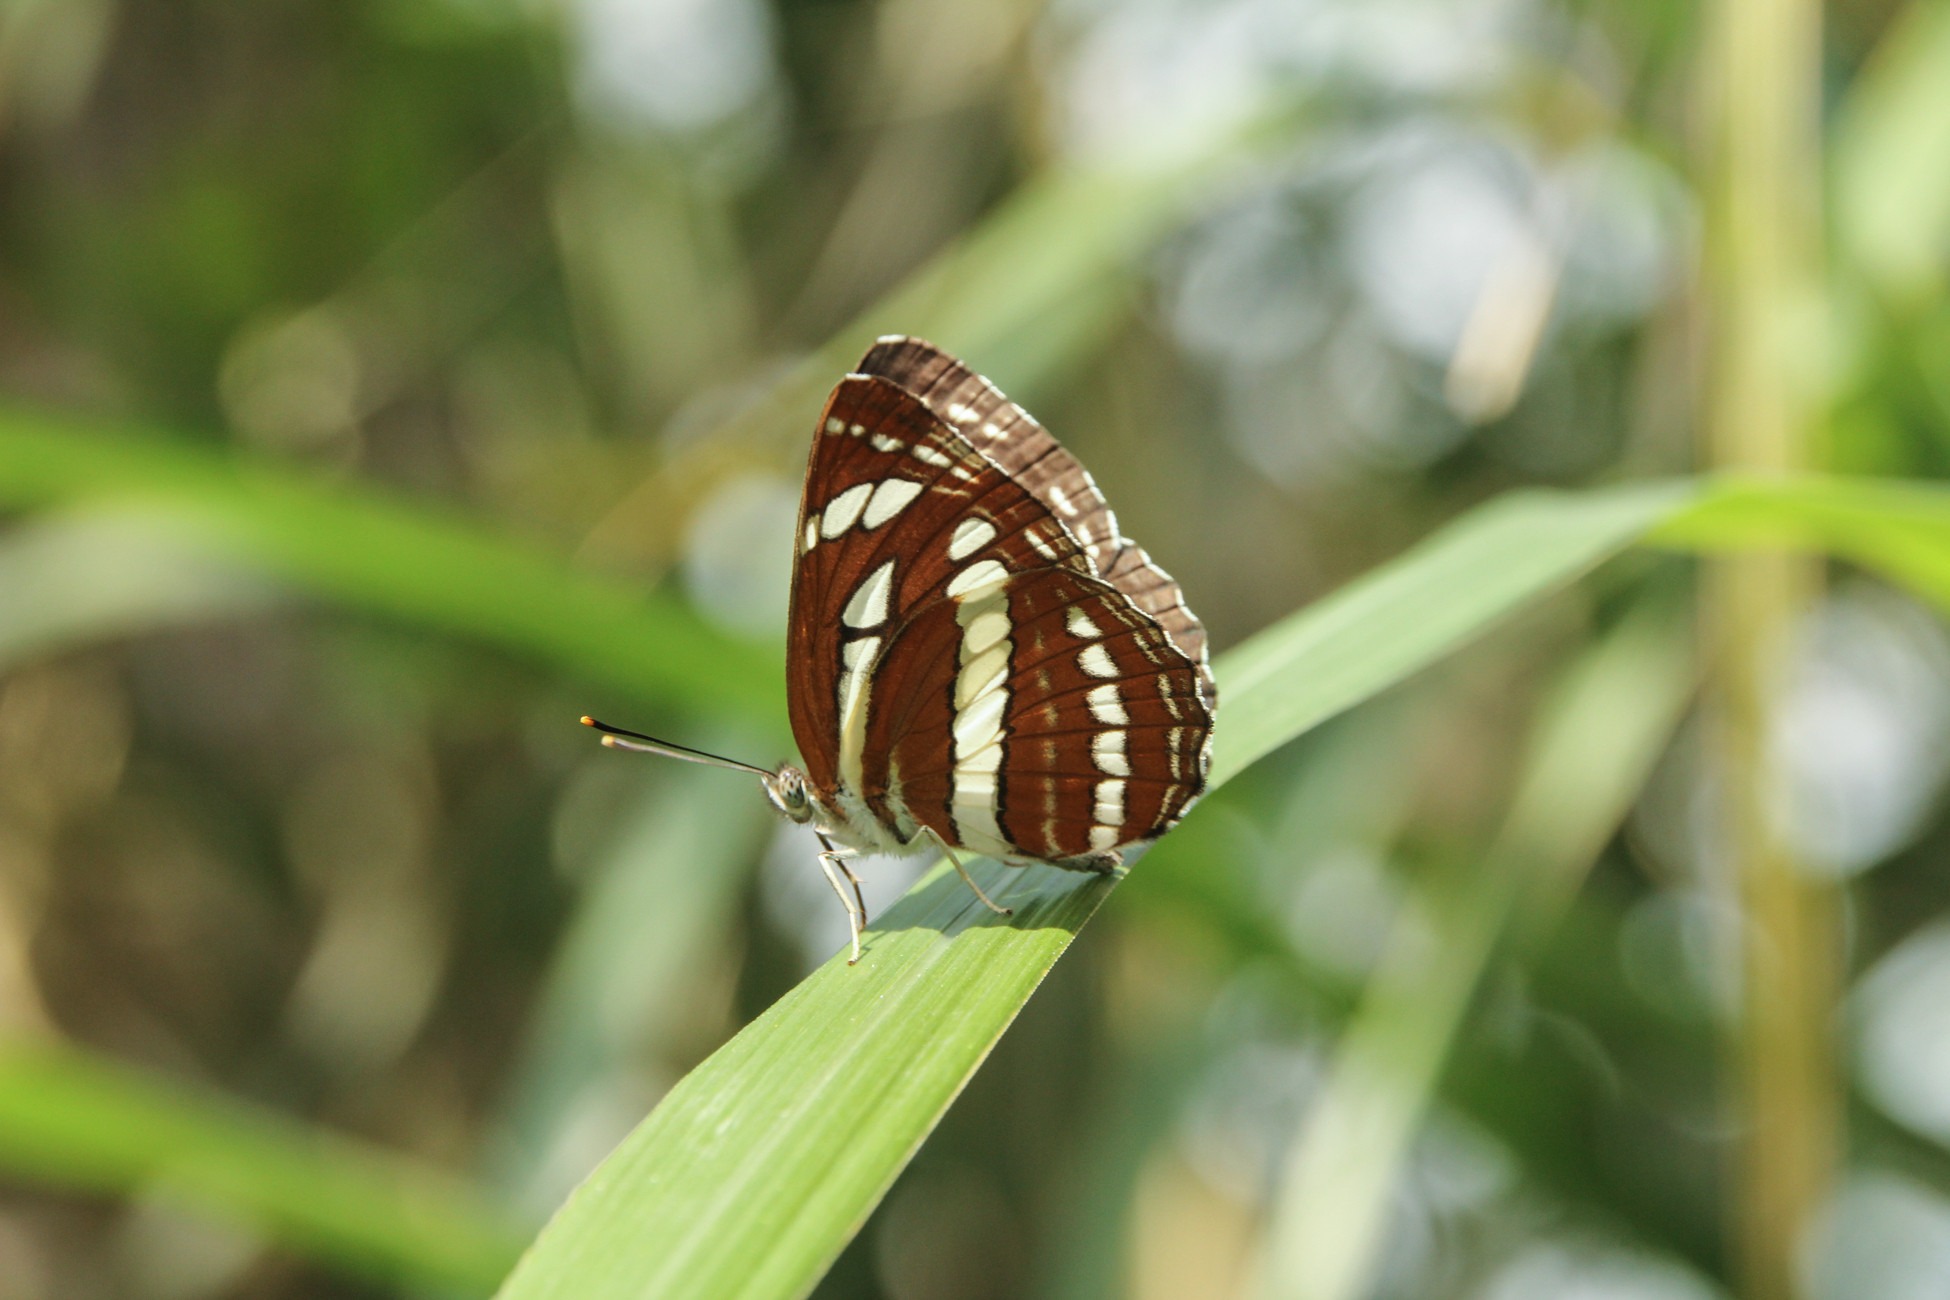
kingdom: Animalia
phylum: Arthropoda
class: Insecta
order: Lepidoptera
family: Nymphalidae
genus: Neptis
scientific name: Neptis hylas
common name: Common sailer
